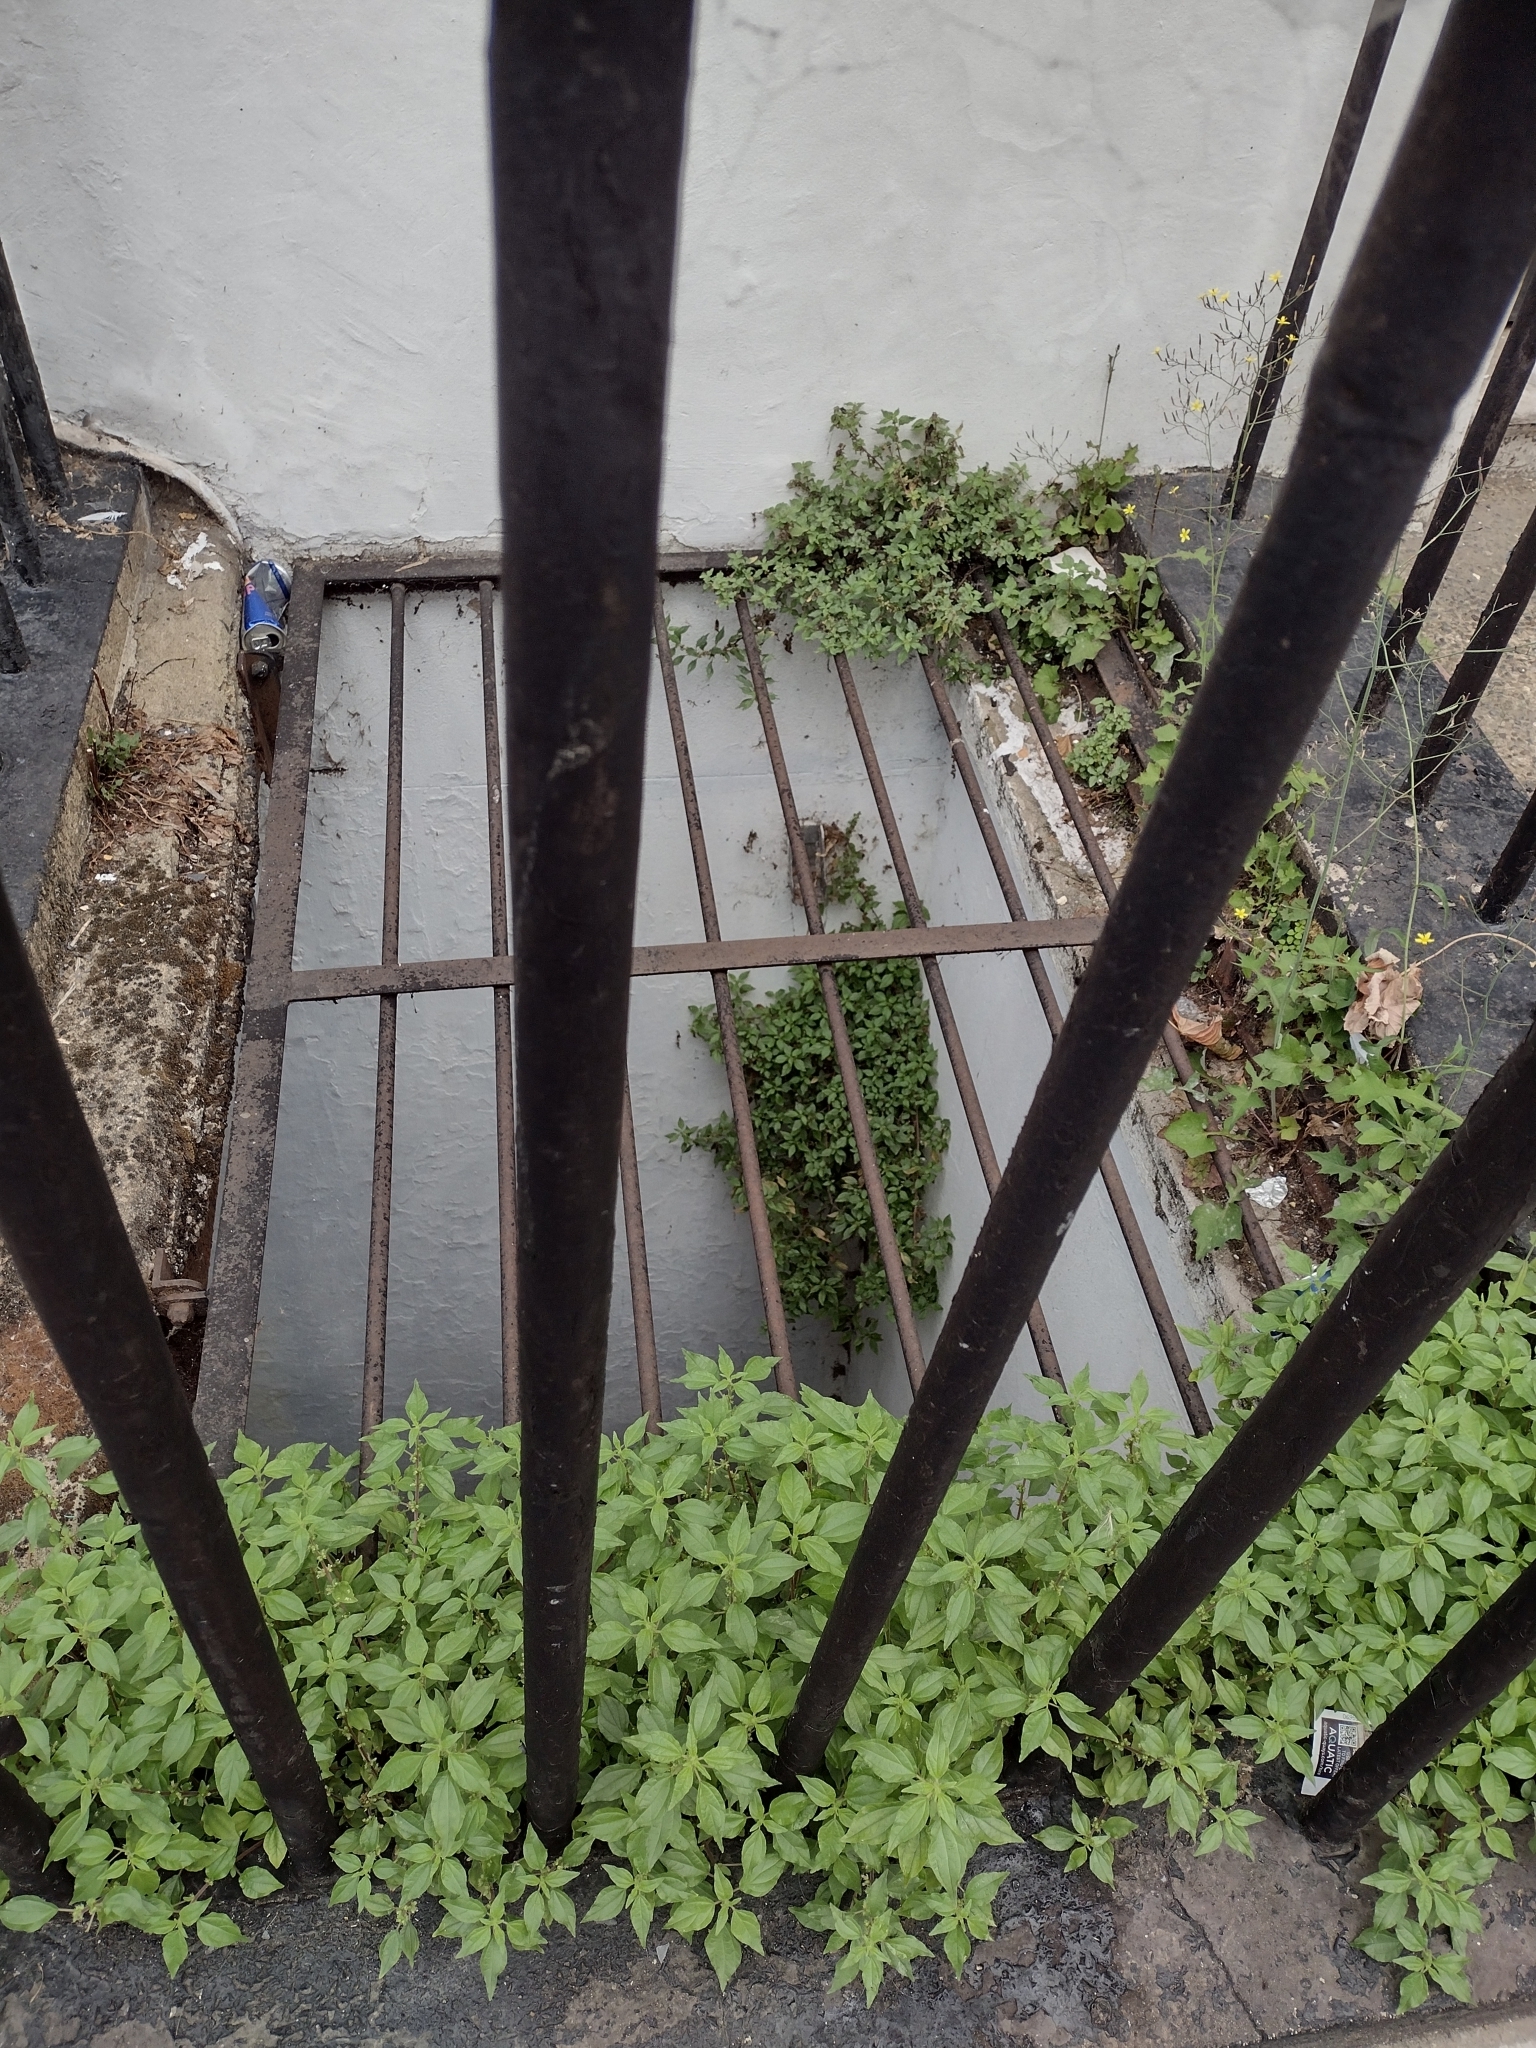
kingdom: Plantae
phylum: Tracheophyta
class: Magnoliopsida
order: Rosales
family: Urticaceae
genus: Parietaria
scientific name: Parietaria judaica
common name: Pellitory-of-the-wall
